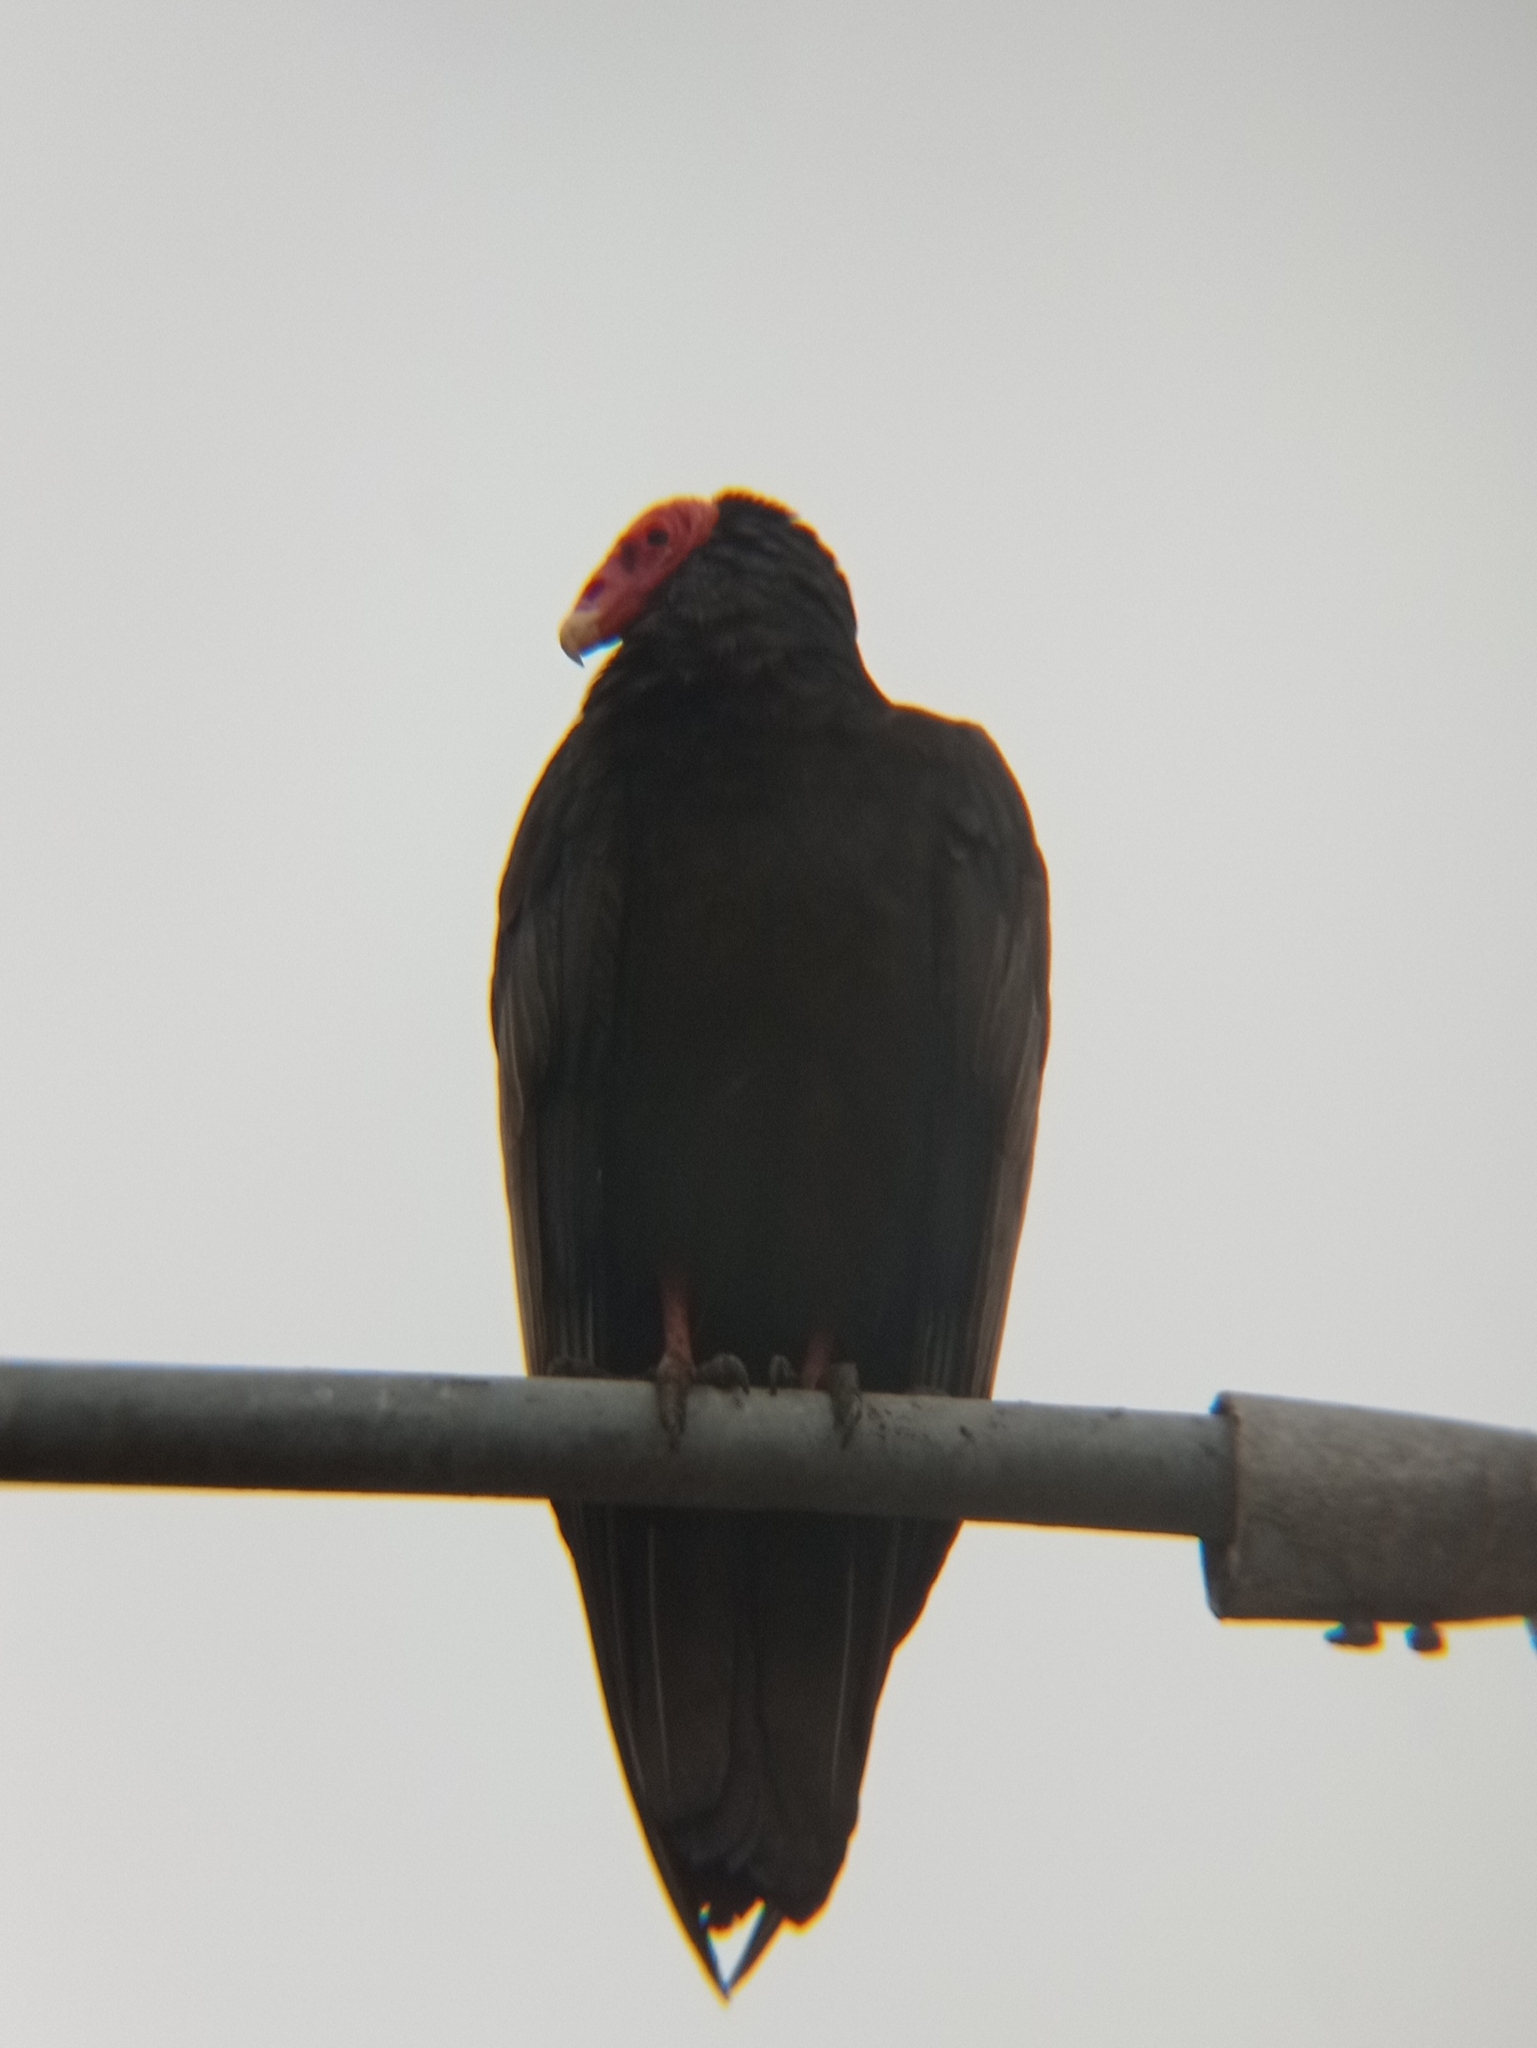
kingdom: Animalia
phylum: Chordata
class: Aves
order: Accipitriformes
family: Cathartidae
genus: Cathartes
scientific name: Cathartes aura
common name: Turkey vulture
